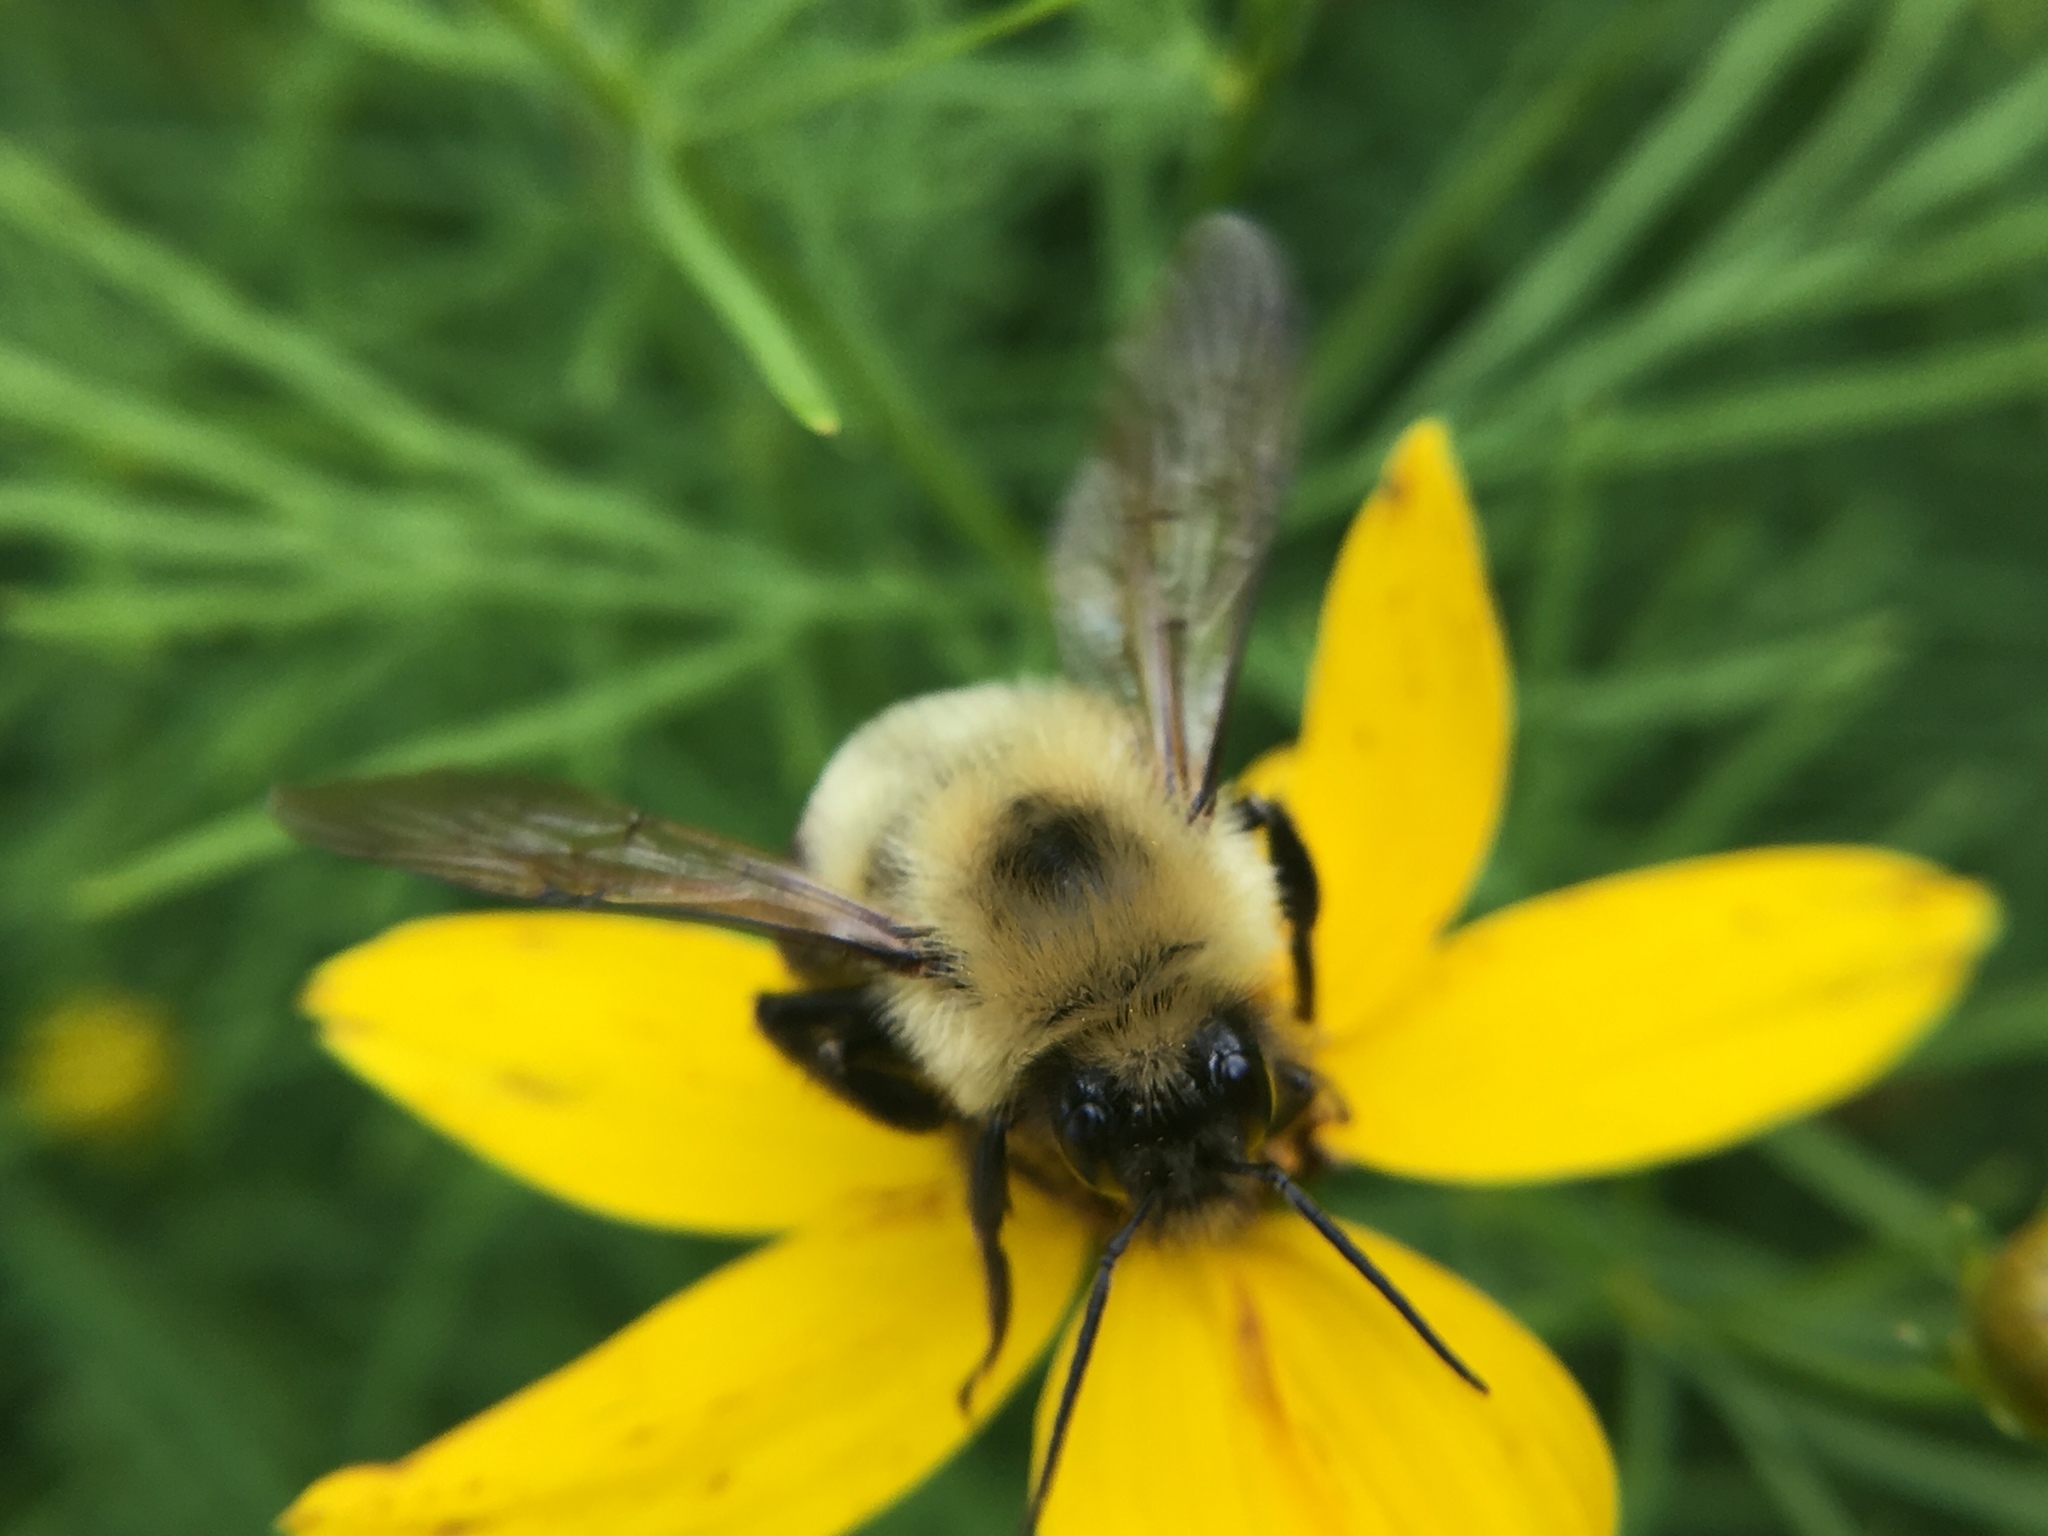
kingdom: Animalia
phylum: Arthropoda
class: Insecta
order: Hymenoptera
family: Apidae
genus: Bombus
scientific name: Bombus bimaculatus
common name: Two-spotted bumble bee
